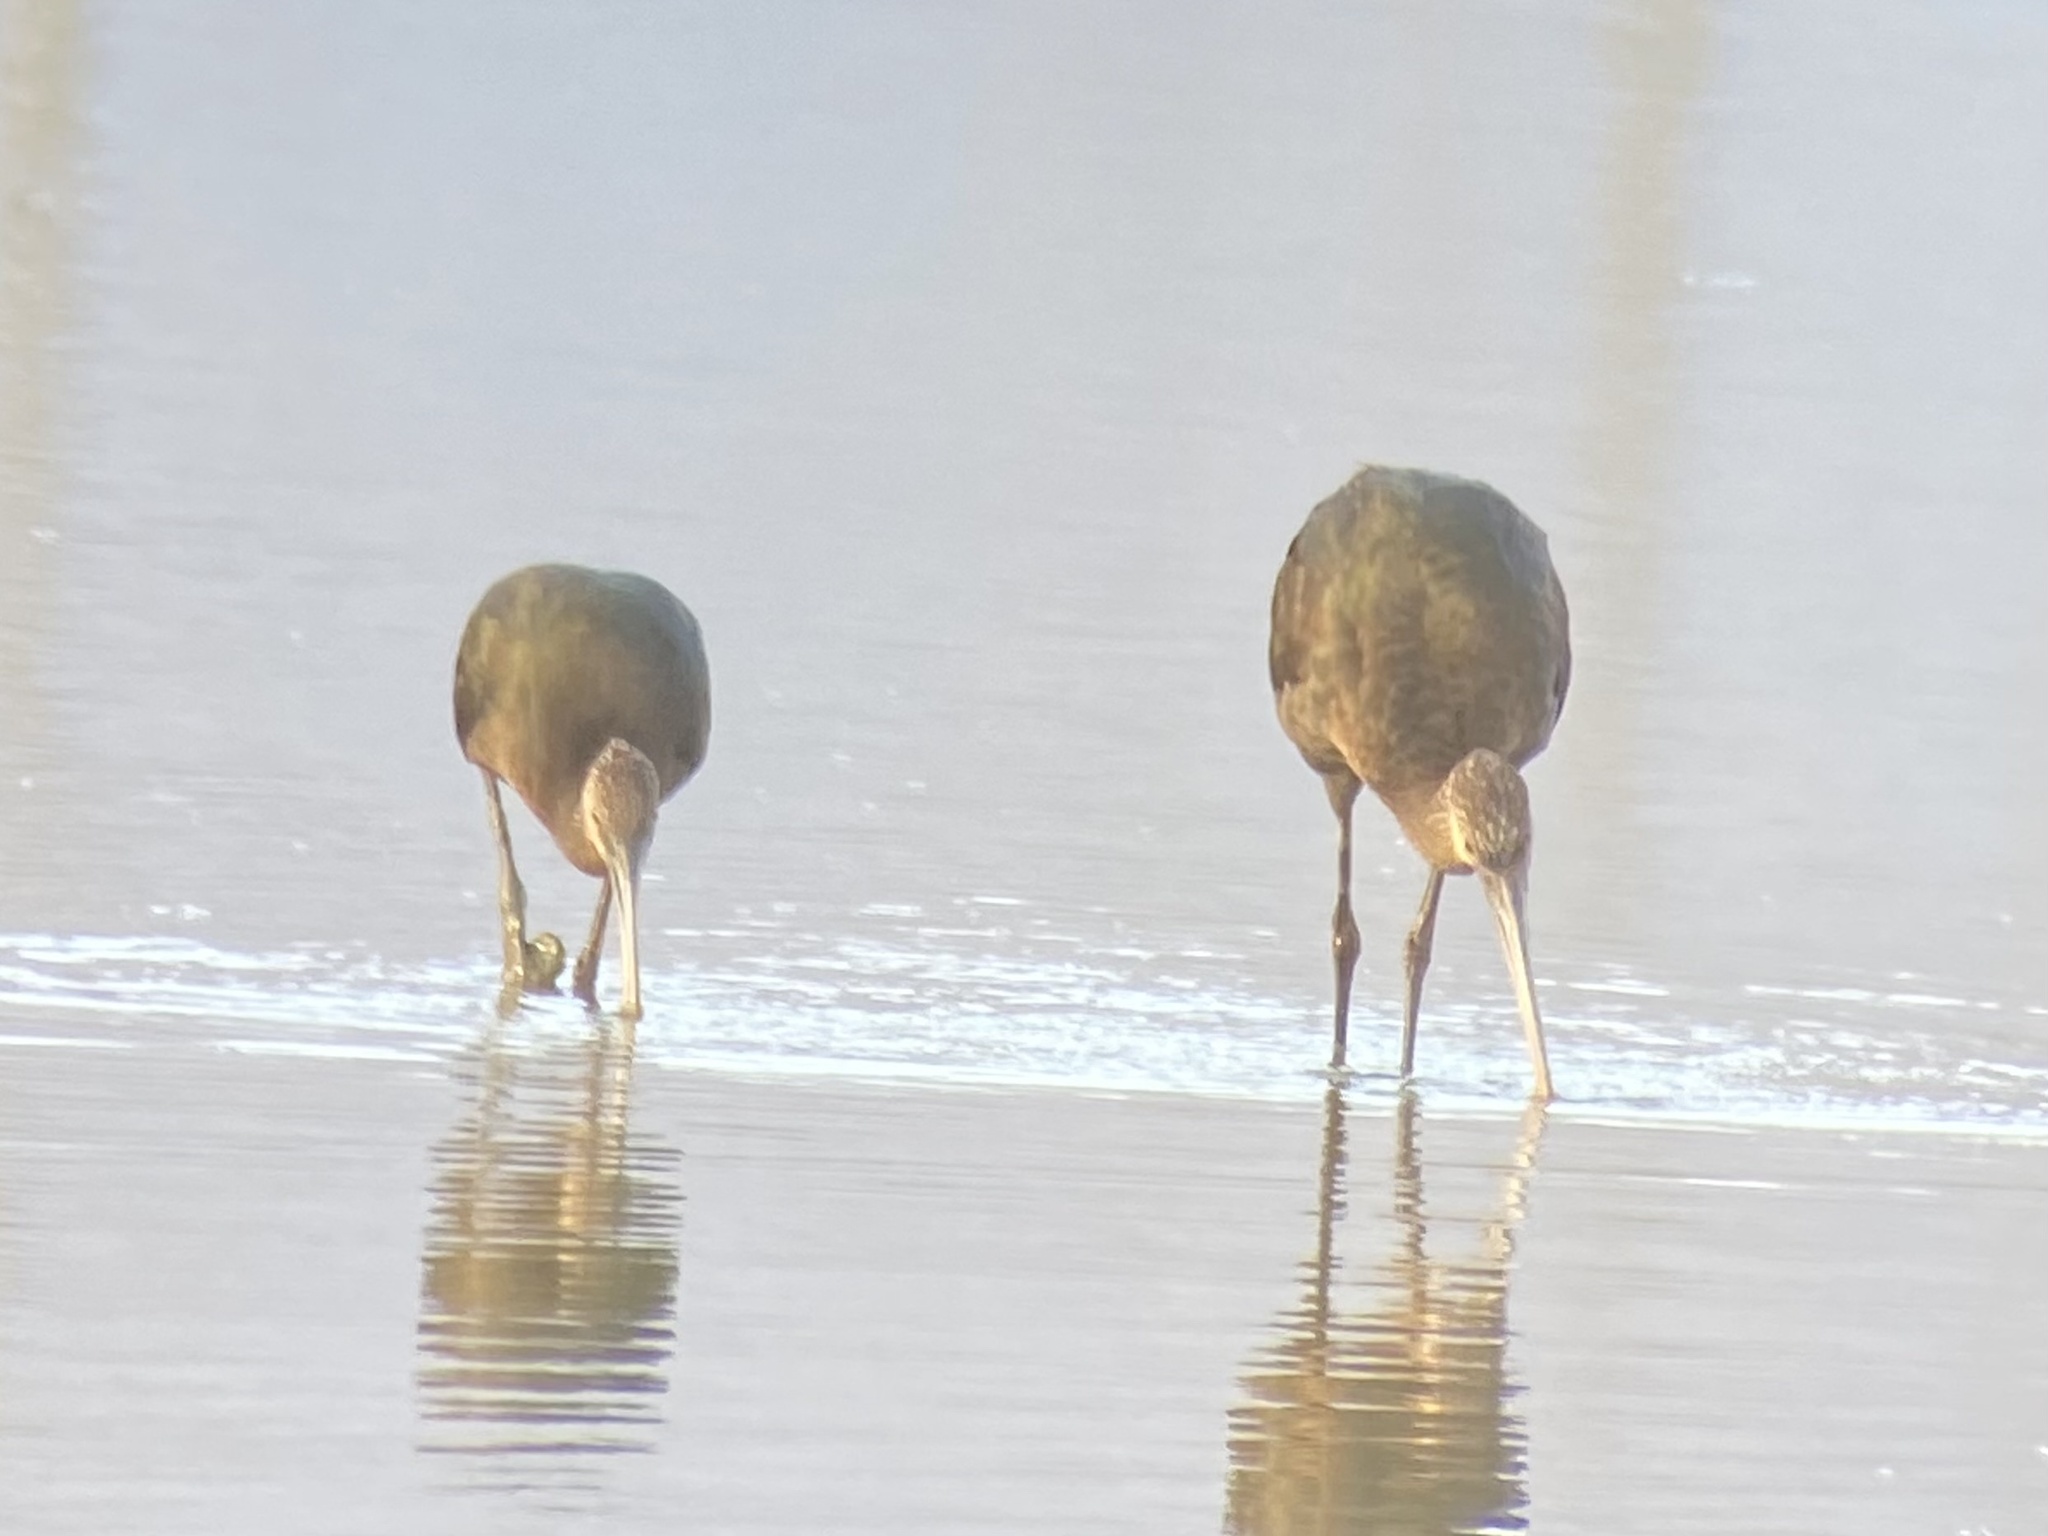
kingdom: Animalia
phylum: Chordata
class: Aves
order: Pelecaniformes
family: Threskiornithidae
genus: Plegadis
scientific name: Plegadis chihi
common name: White-faced ibis
